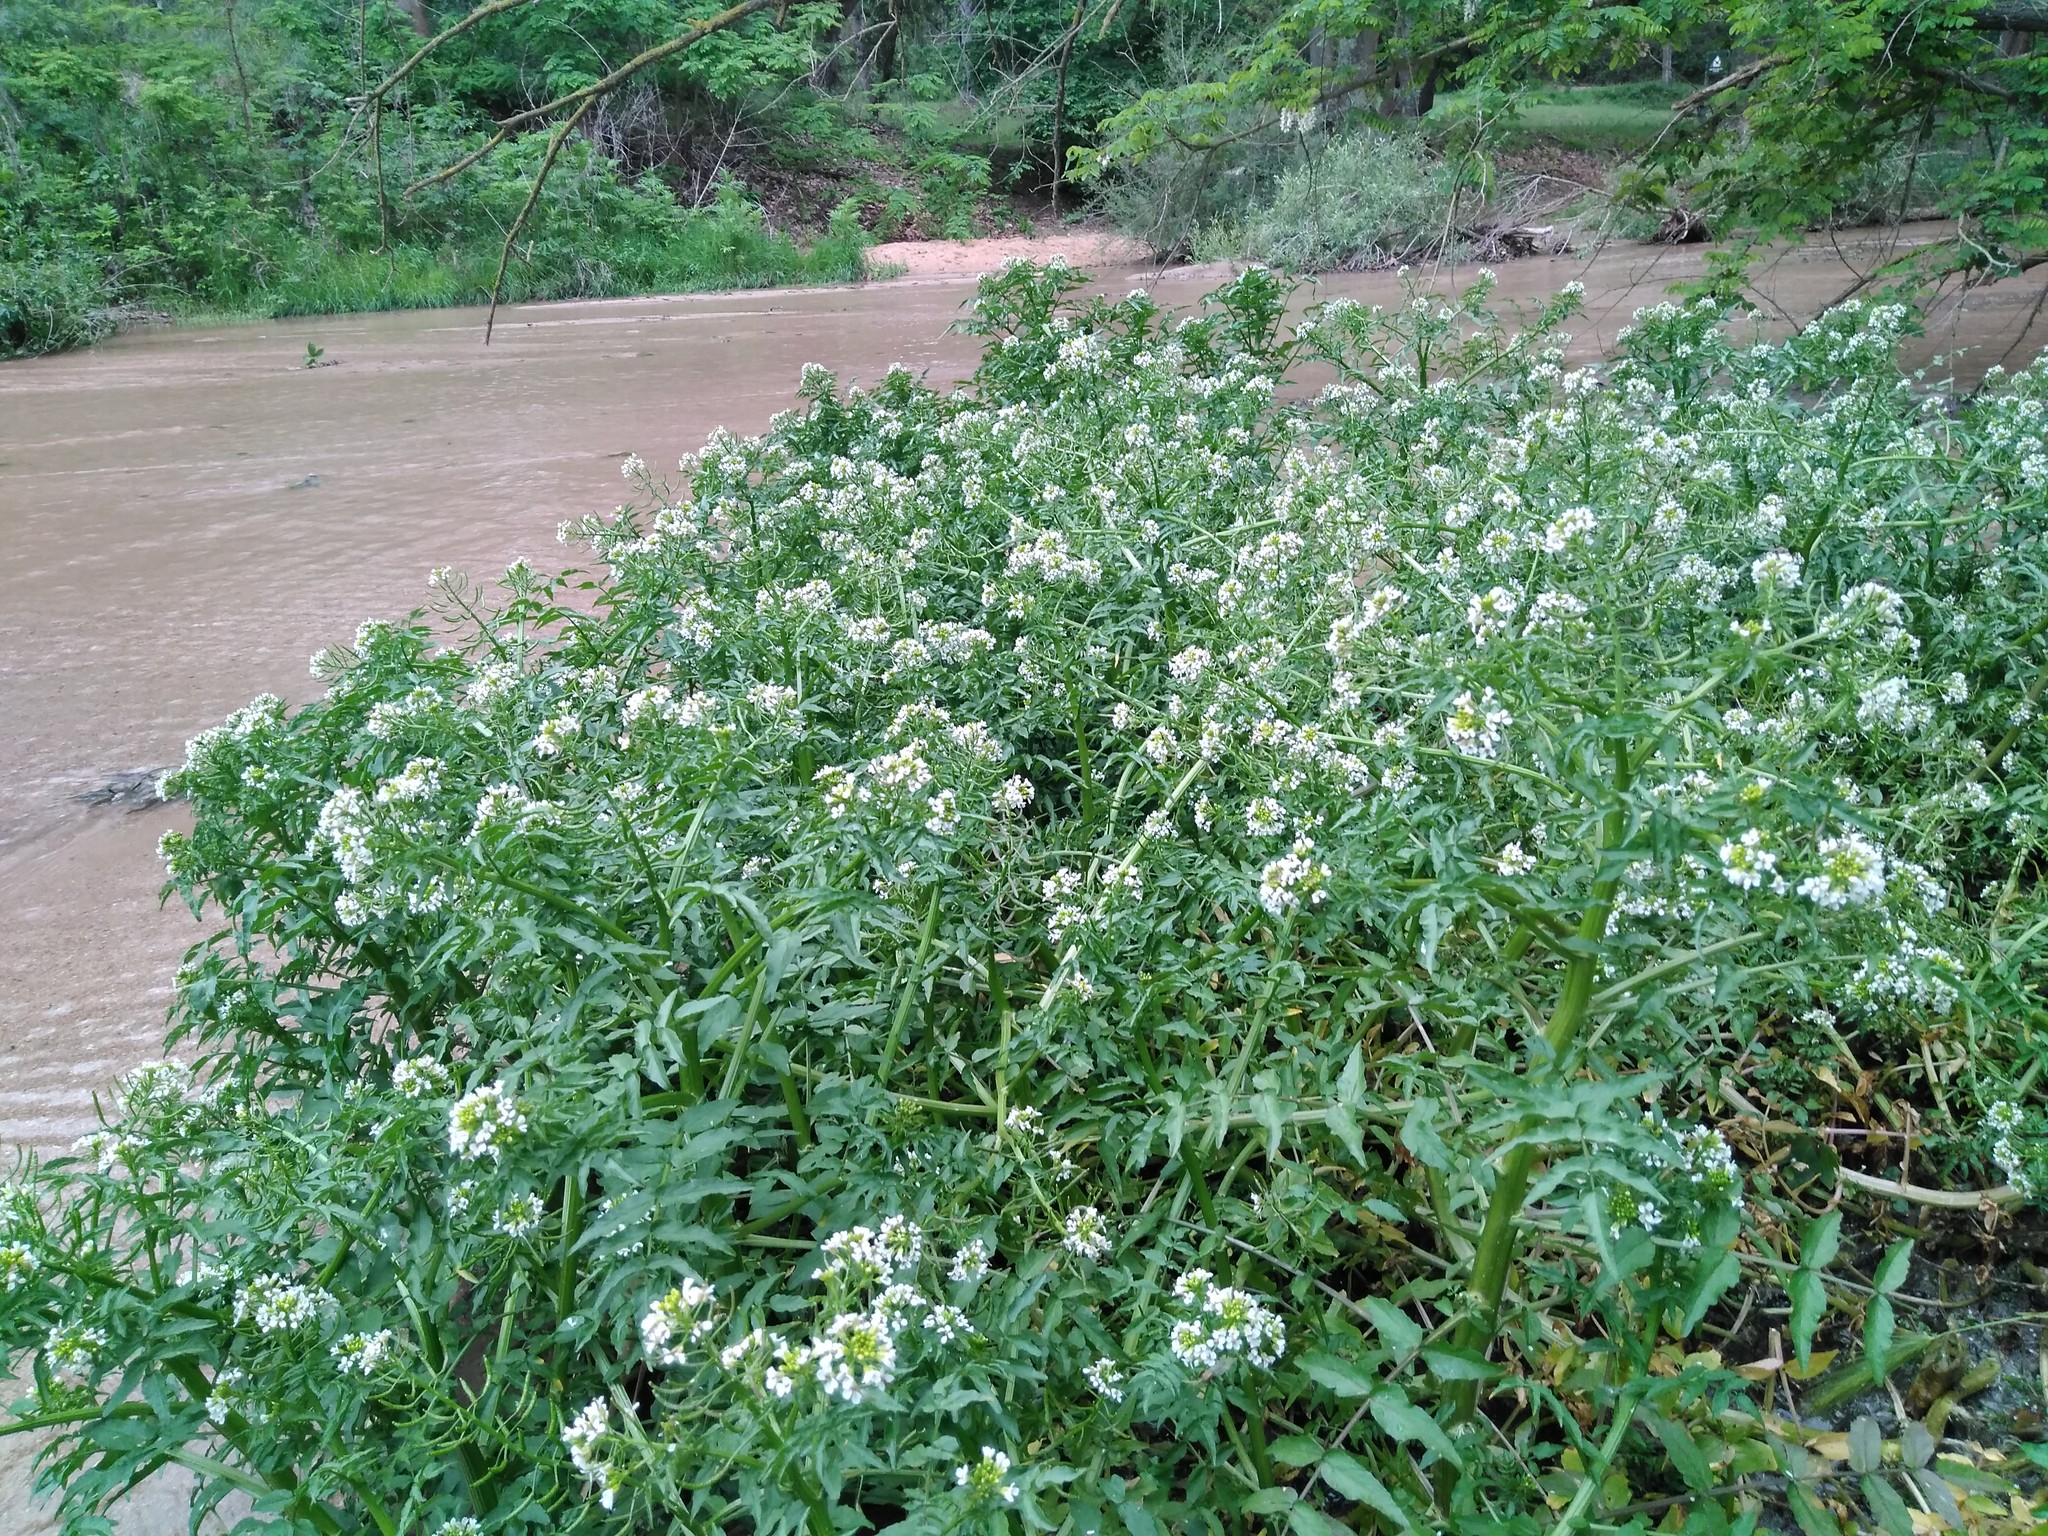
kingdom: Plantae
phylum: Tracheophyta
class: Magnoliopsida
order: Brassicales
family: Brassicaceae
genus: Nasturtium
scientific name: Nasturtium officinale
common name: Watercress
